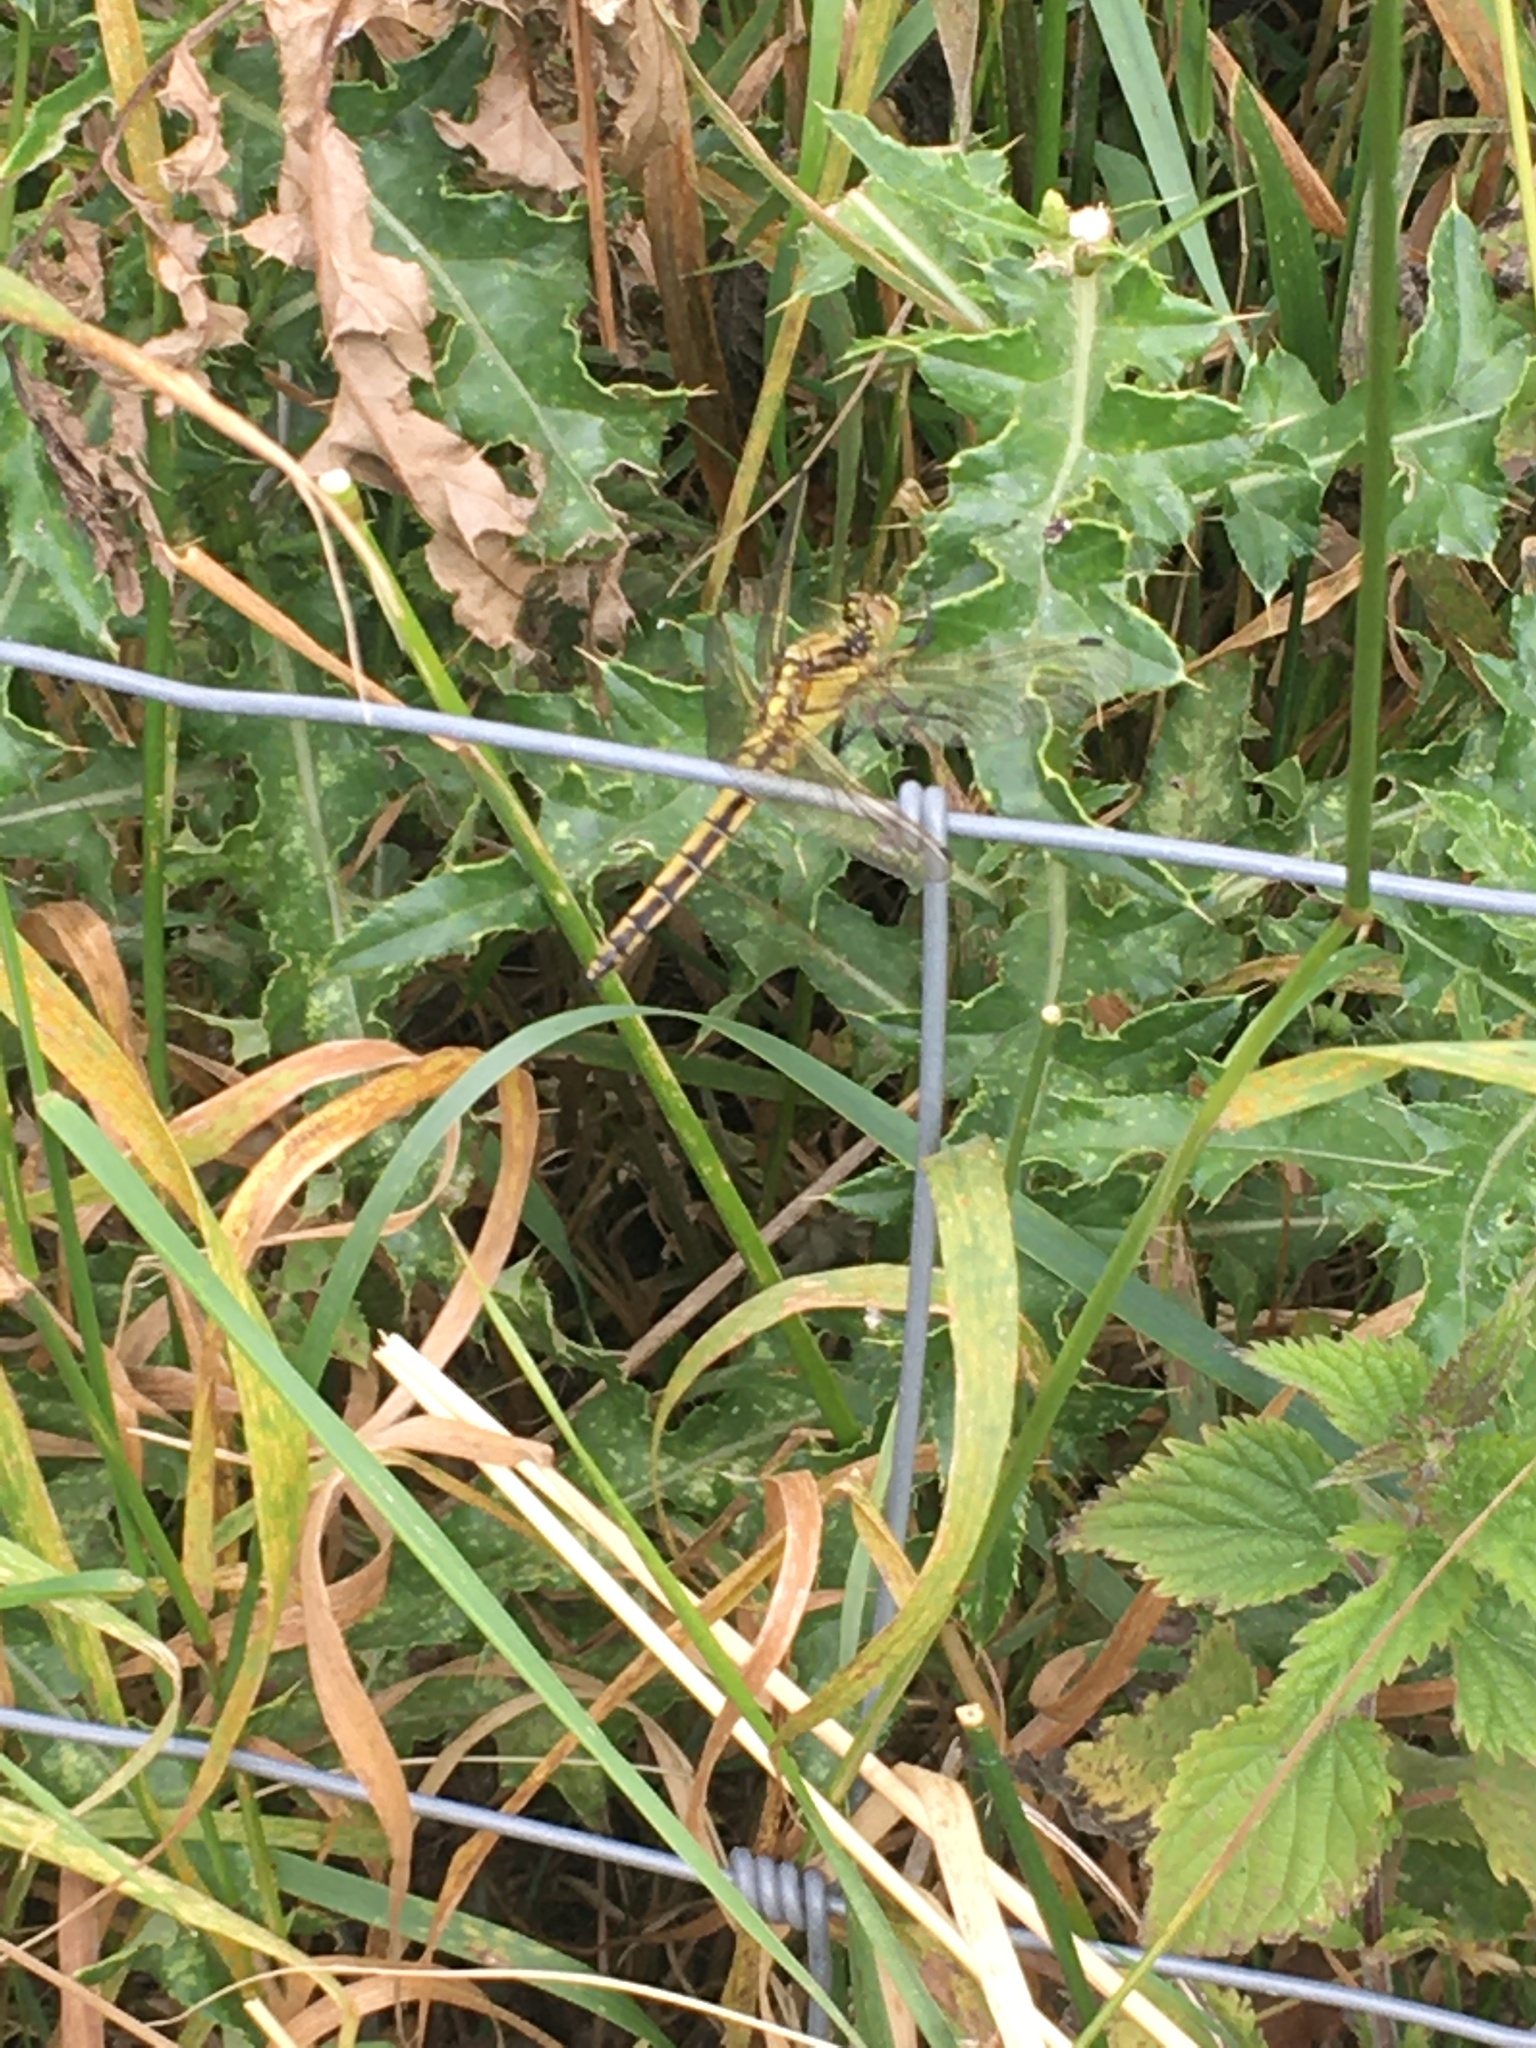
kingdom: Animalia
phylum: Arthropoda
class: Insecta
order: Odonata
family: Libellulidae
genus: Orthetrum
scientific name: Orthetrum cancellatum
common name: Black-tailed skimmer
